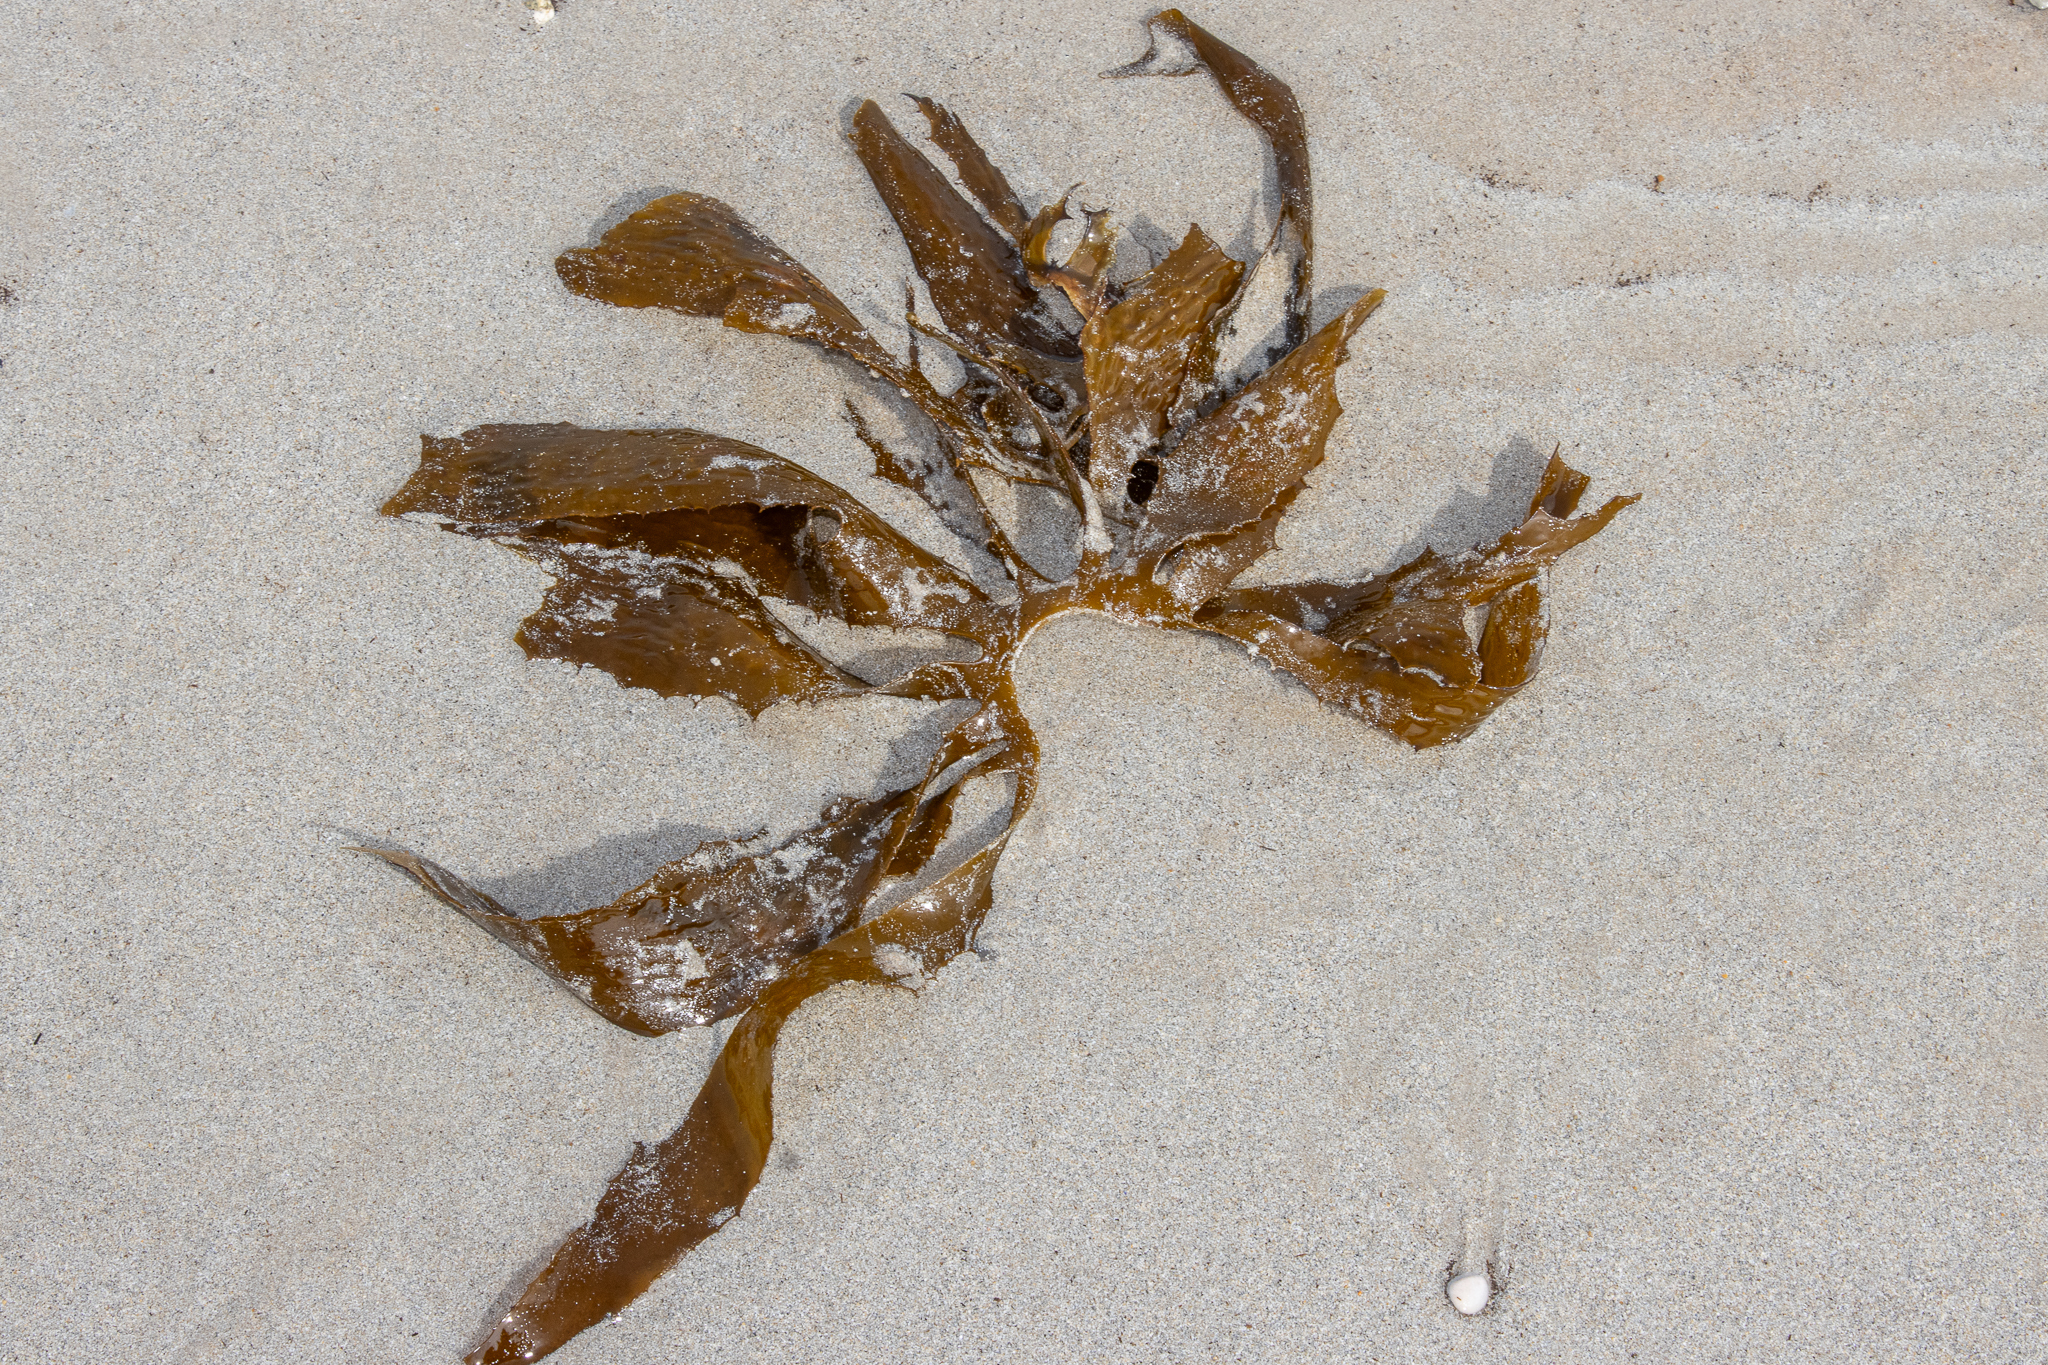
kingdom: Chromista
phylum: Ochrophyta
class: Phaeophyceae
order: Laminariales
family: Lessoniaceae
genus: Ecklonia
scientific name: Ecklonia radiata
